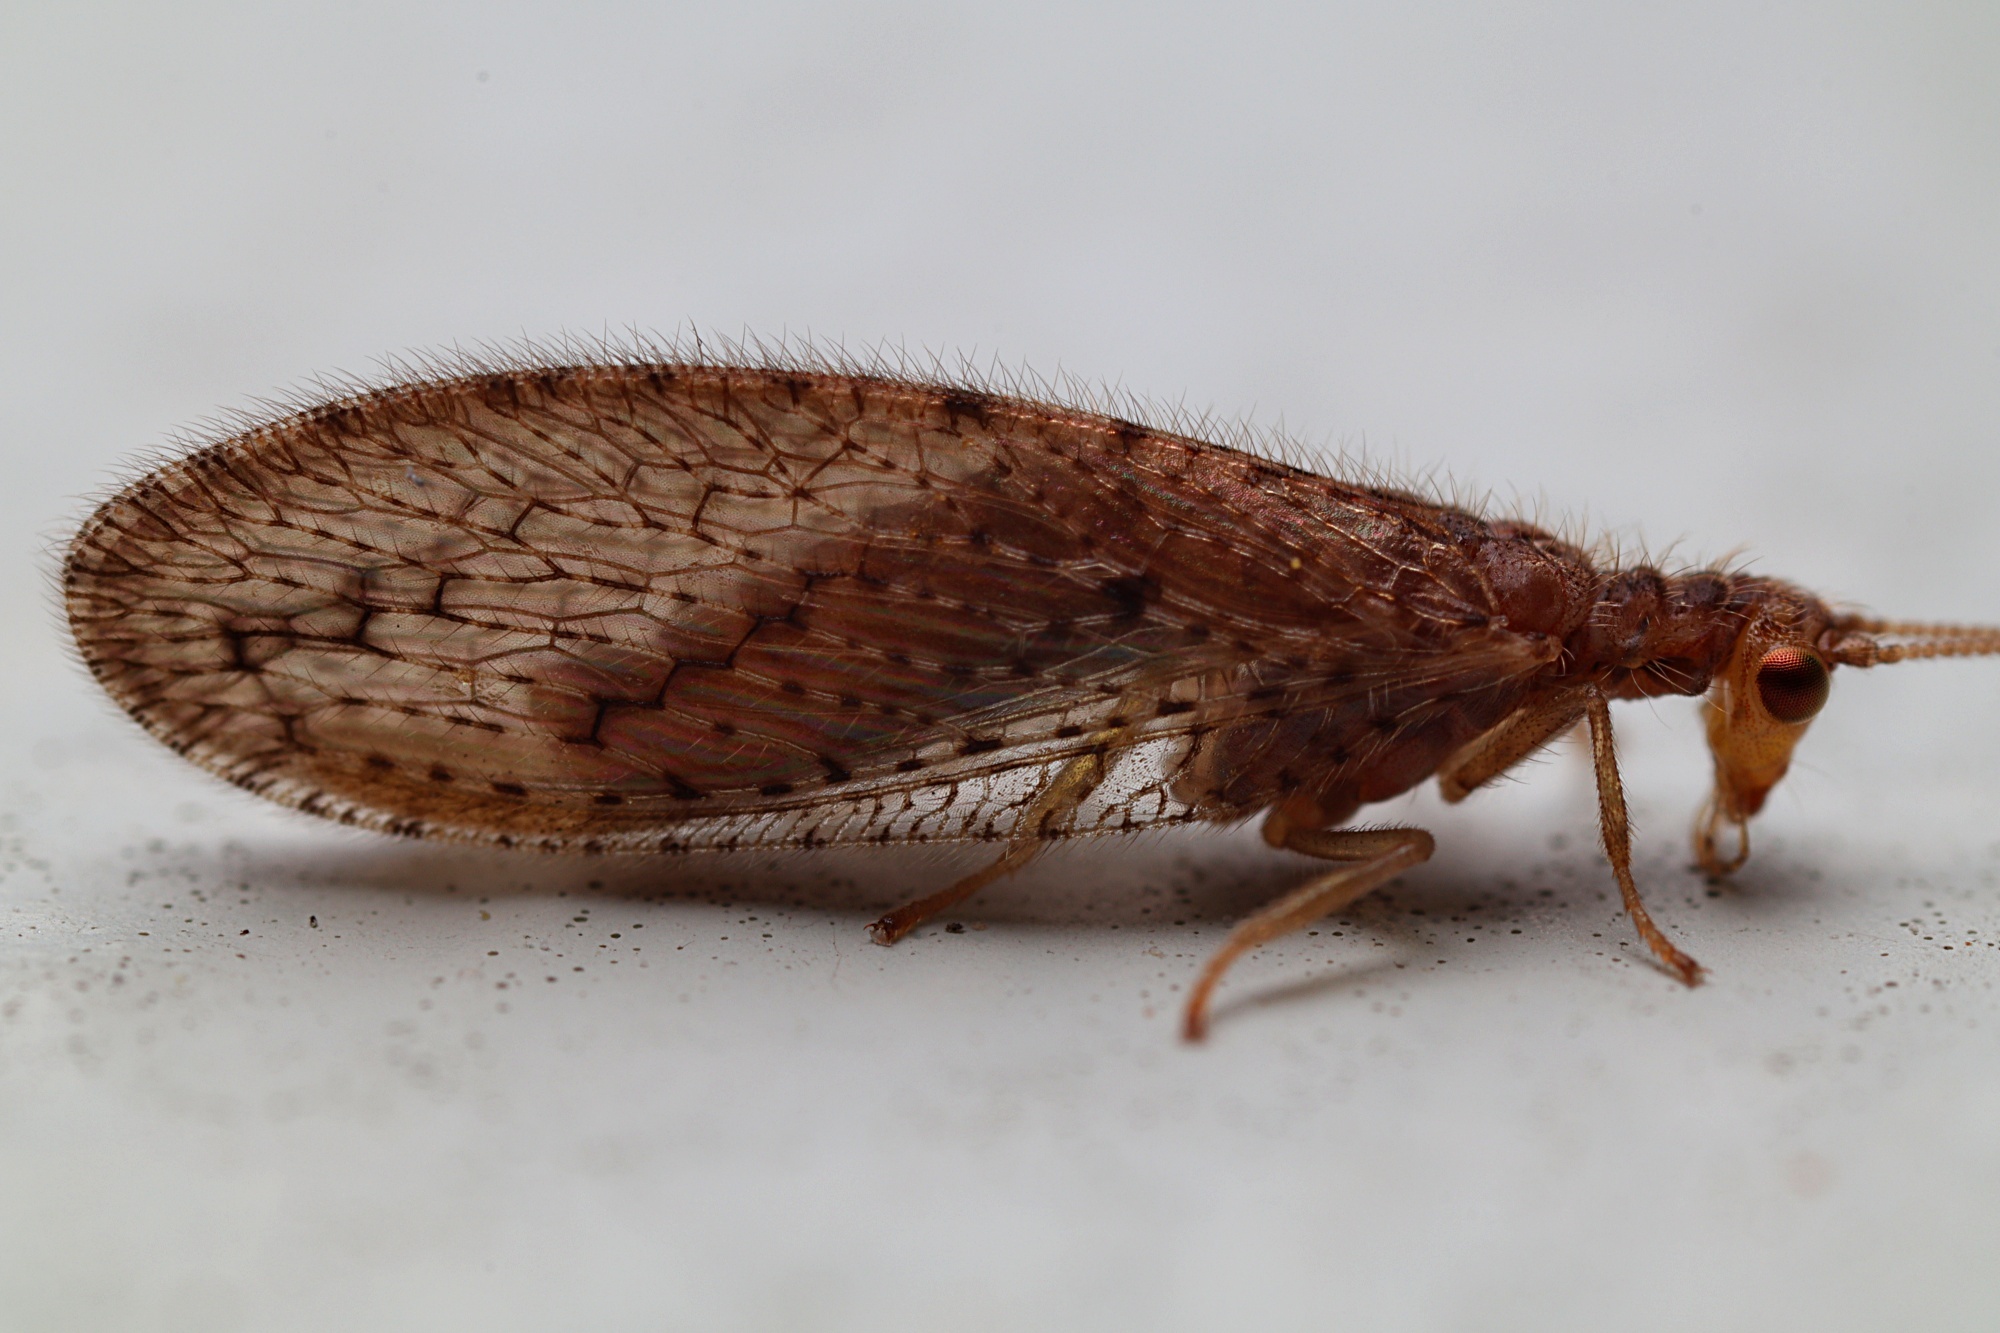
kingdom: Animalia
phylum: Arthropoda
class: Insecta
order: Neuroptera
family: Hemerobiidae
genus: Micromus
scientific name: Micromus tasmaniae
